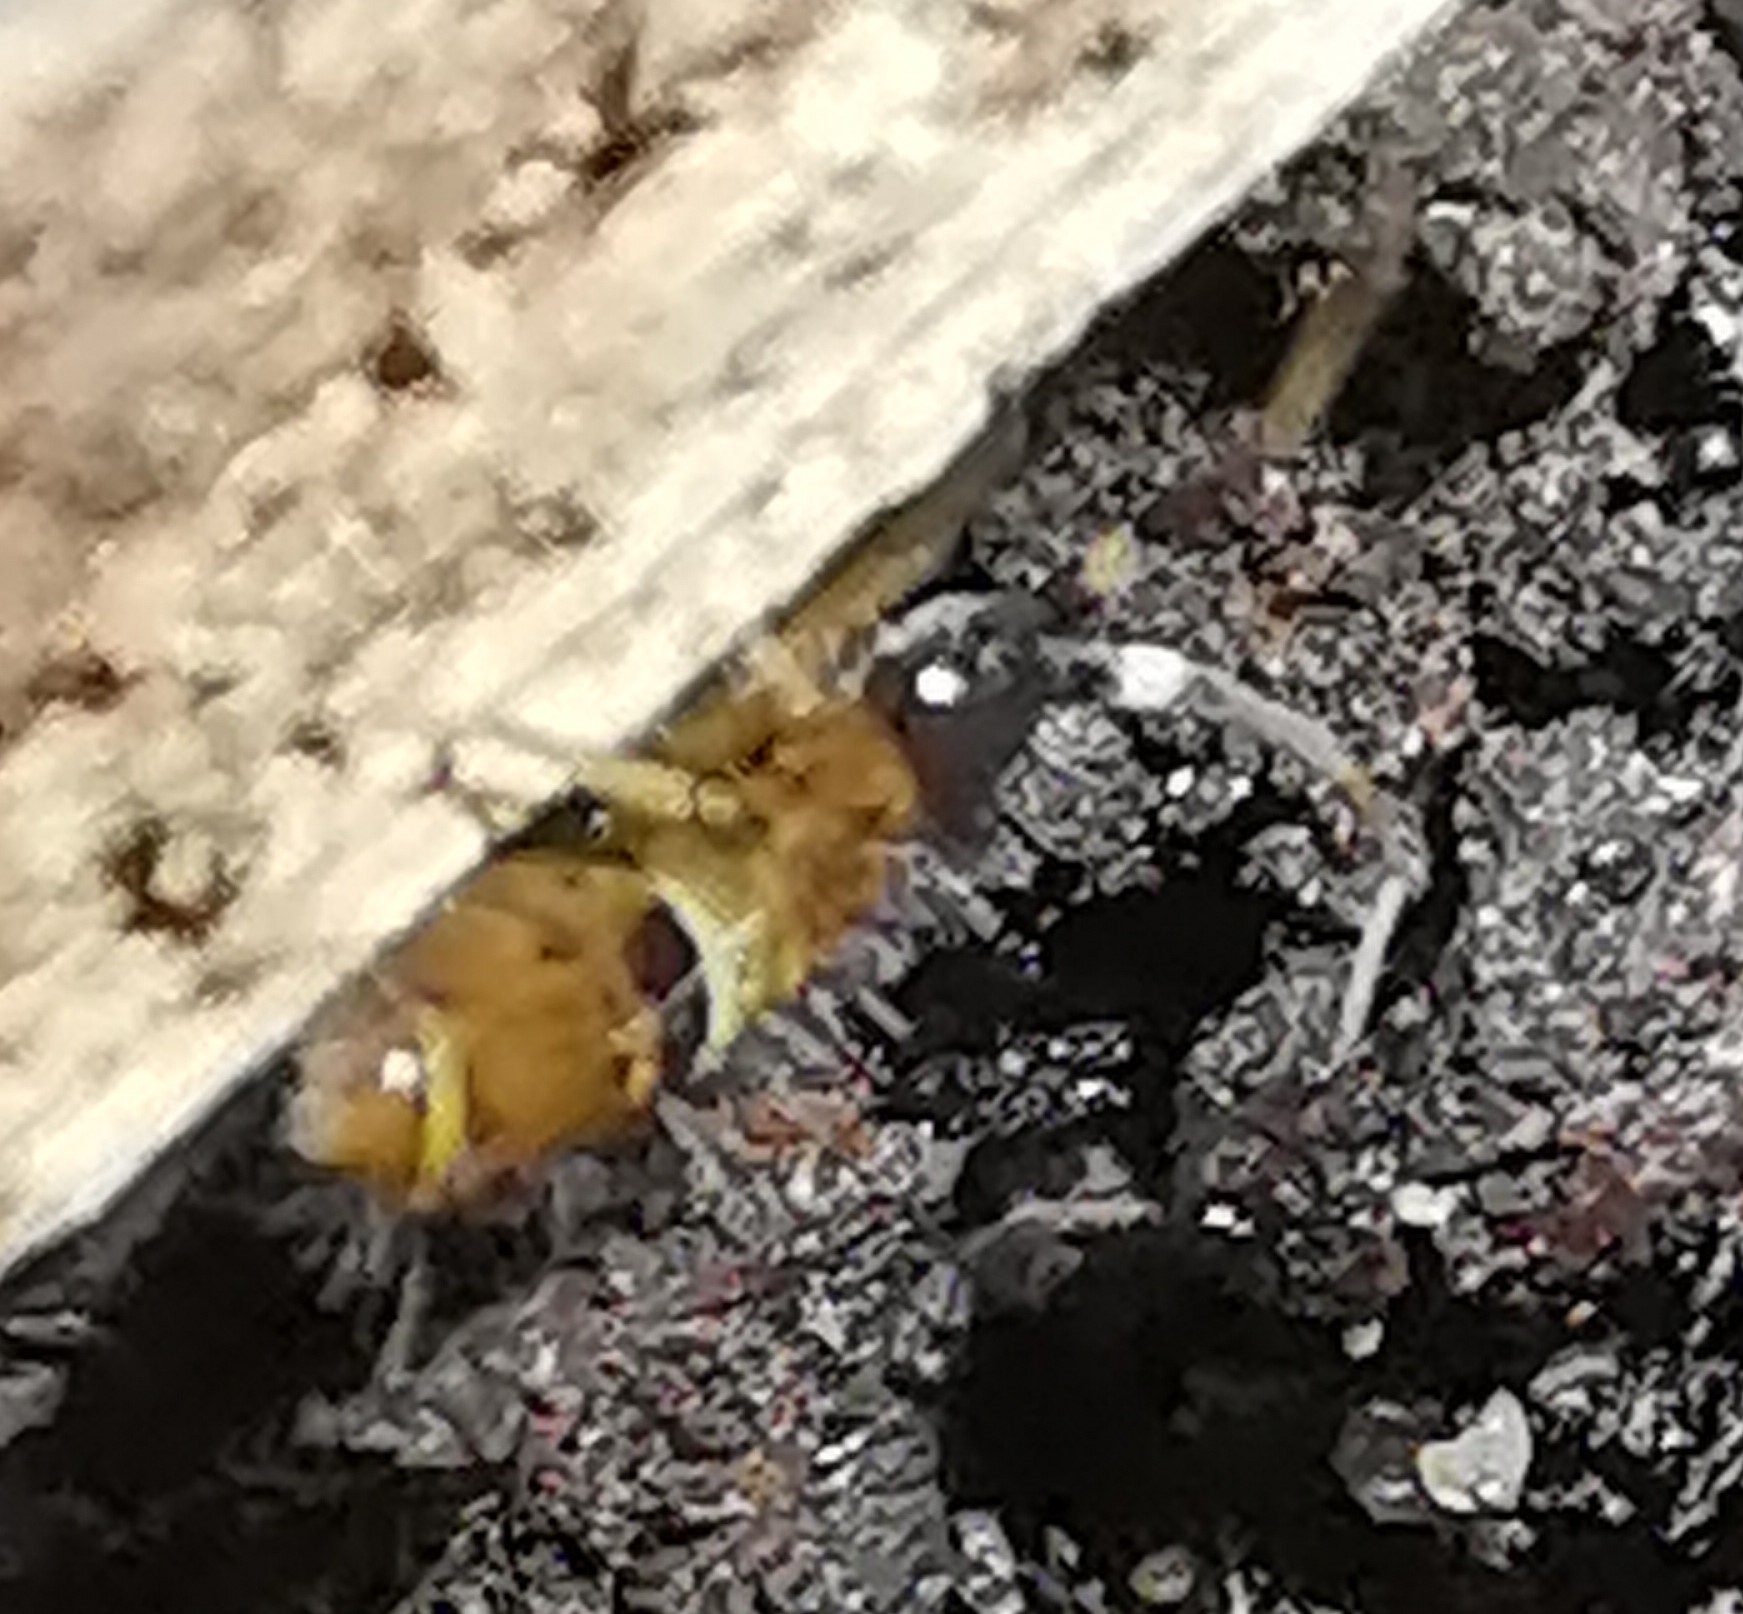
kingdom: Animalia
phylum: Arthropoda
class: Collembola
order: Entomobryomorpha
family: Orchesellidae
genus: Orchesella
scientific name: Orchesella cincta
